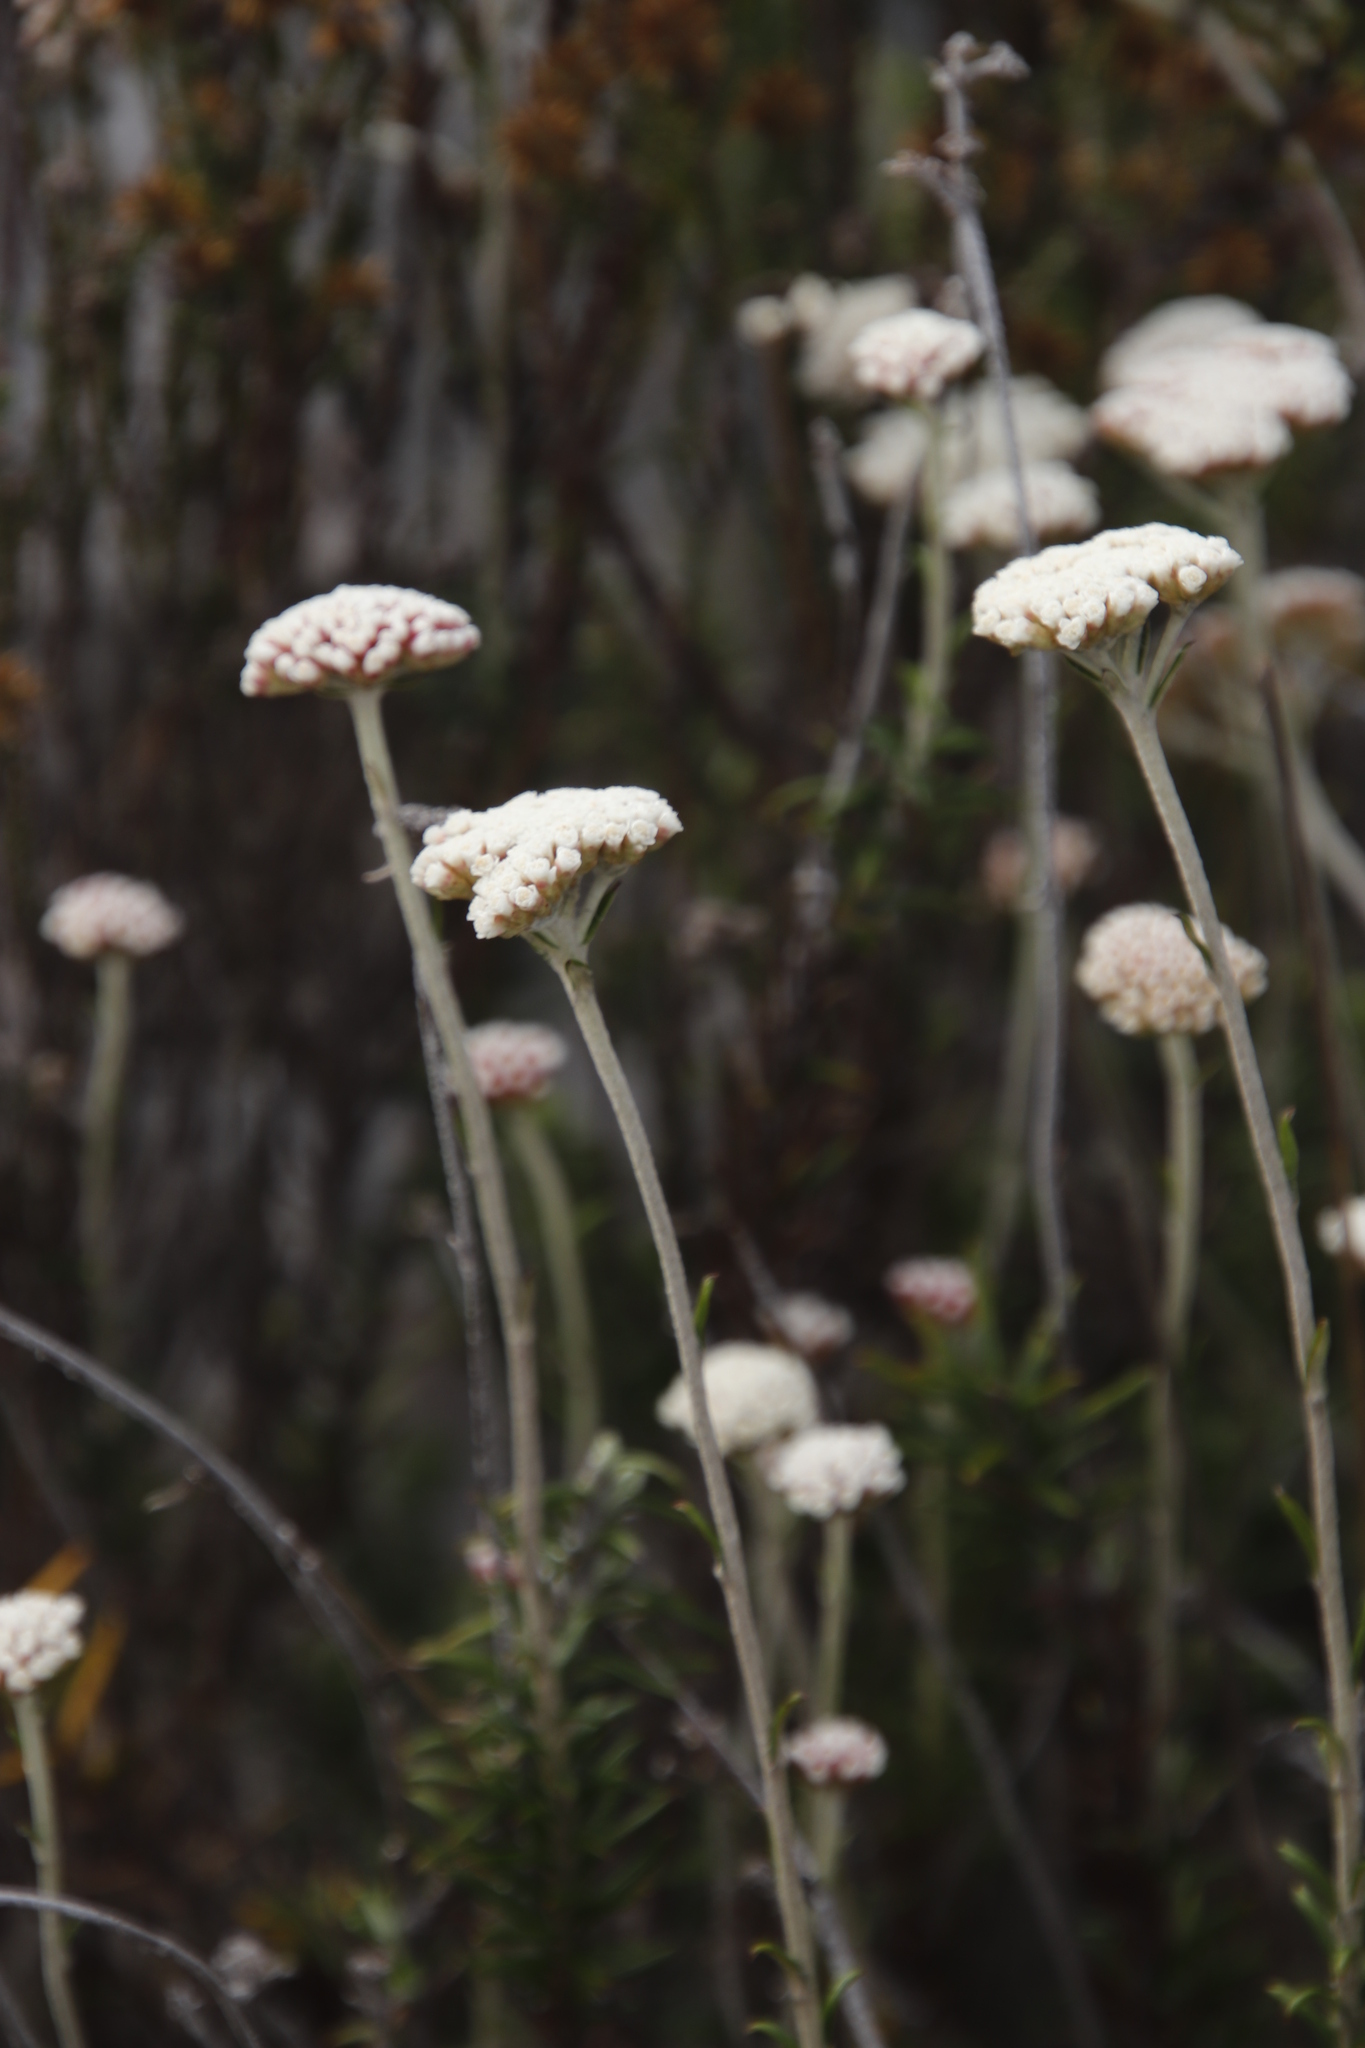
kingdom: Plantae
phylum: Tracheophyta
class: Magnoliopsida
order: Asterales
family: Asteraceae
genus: Anaxeton
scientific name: Anaxeton arborescens
